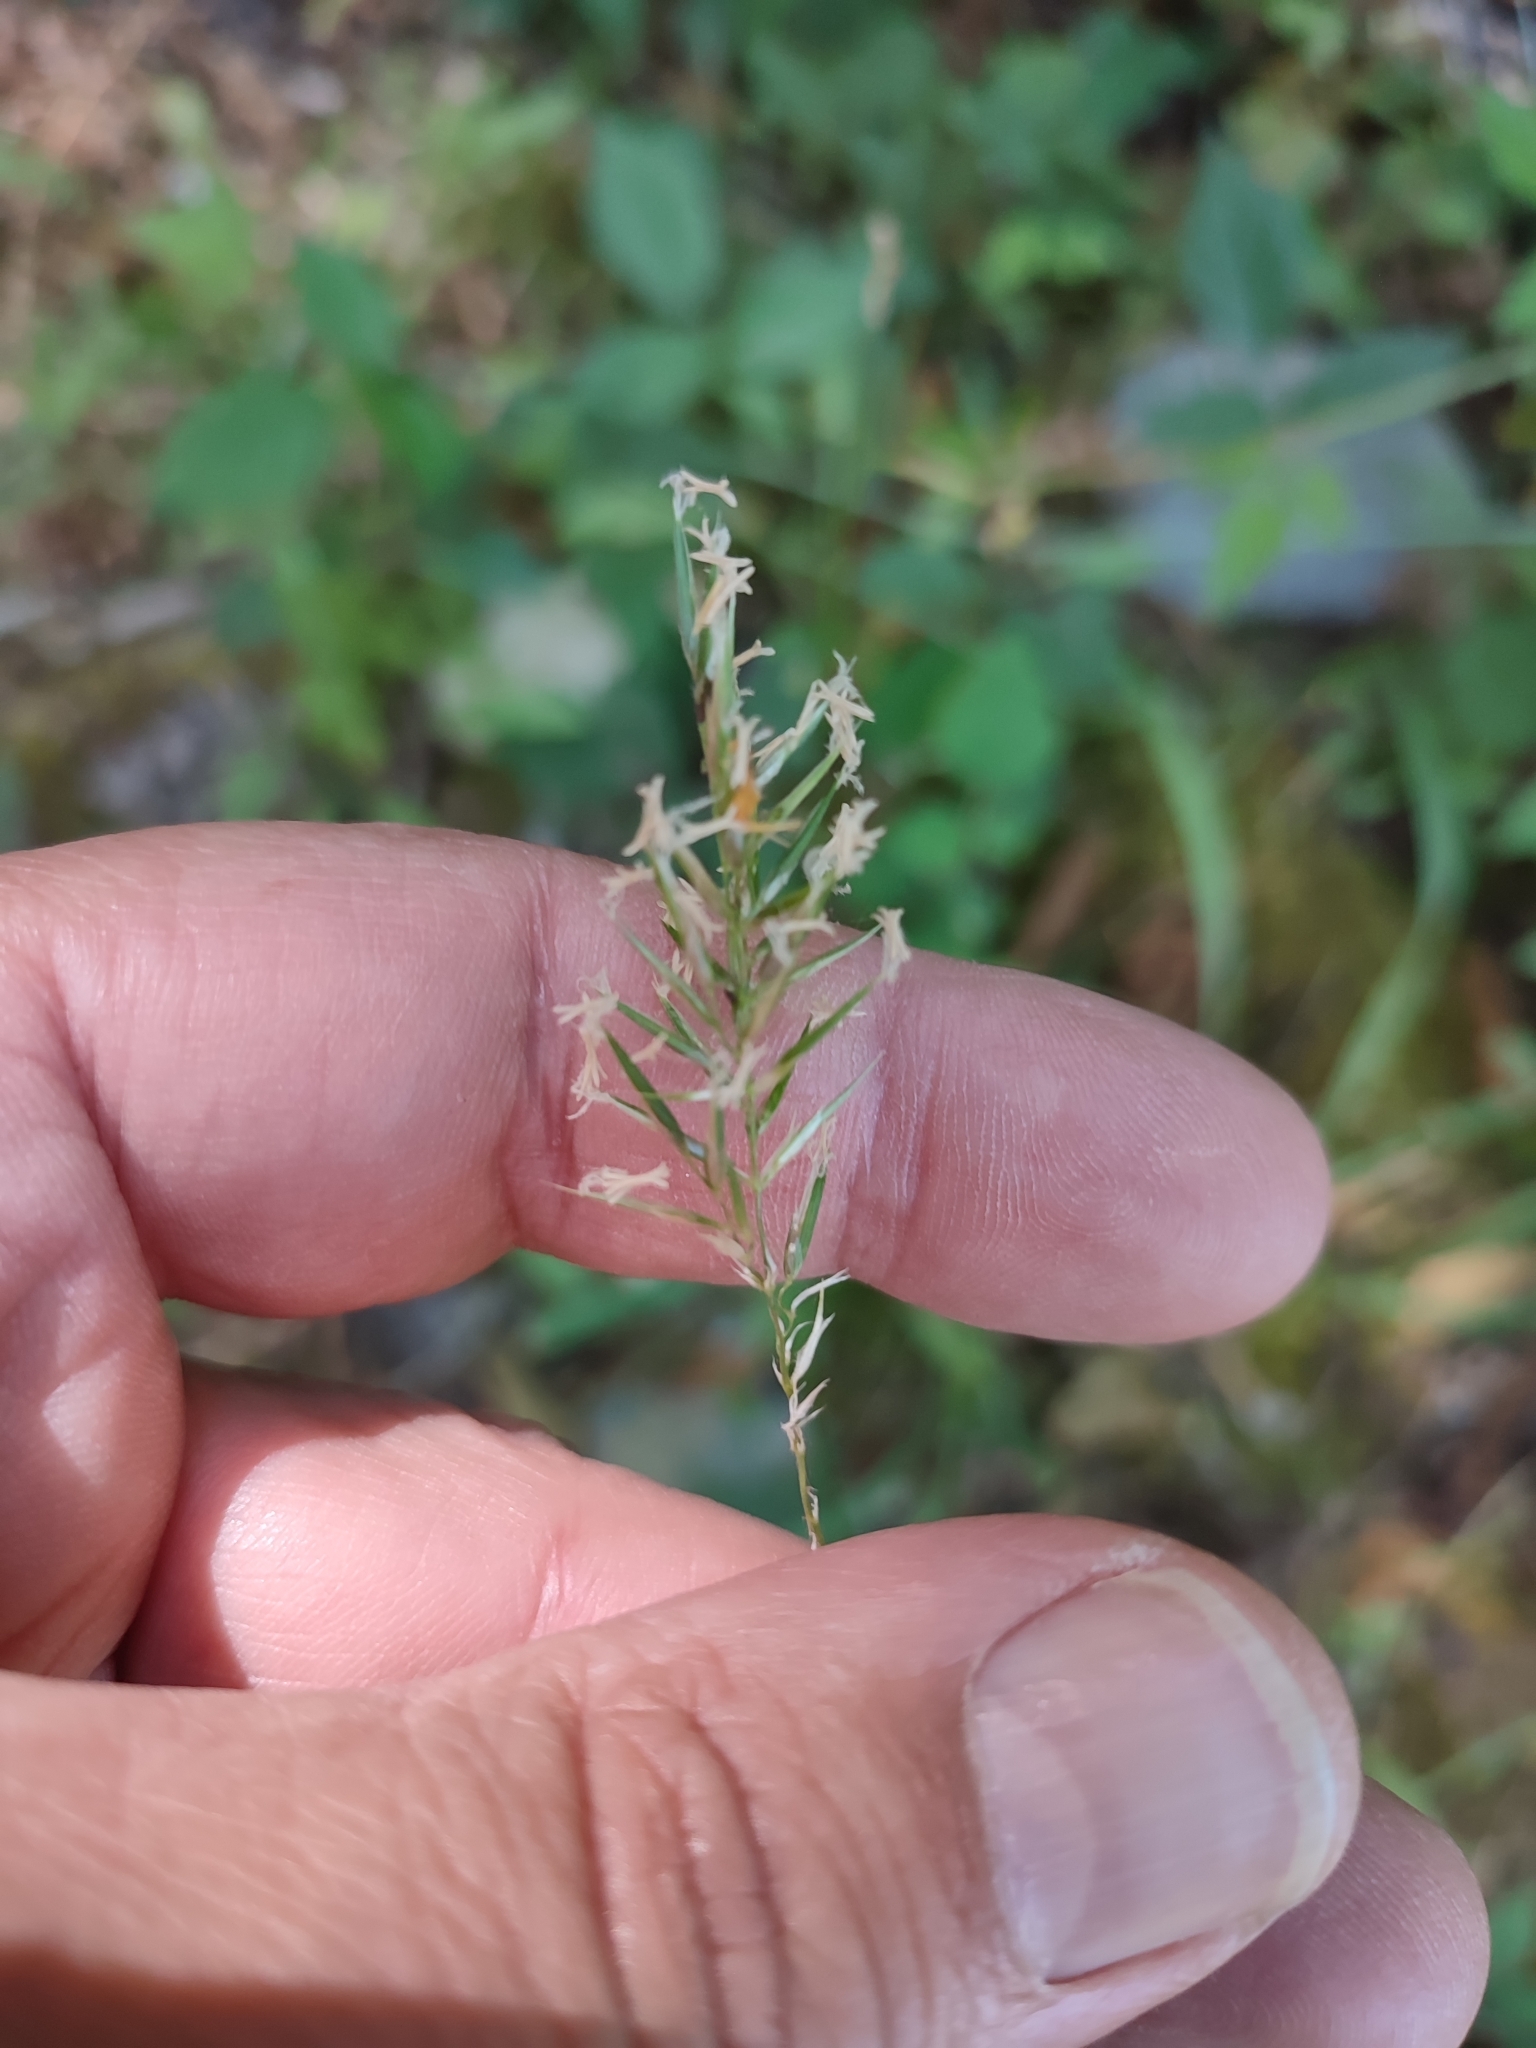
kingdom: Plantae
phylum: Tracheophyta
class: Liliopsida
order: Poales
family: Poaceae
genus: Anthoxanthum
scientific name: Anthoxanthum odoratum
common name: Sweet vernalgrass
